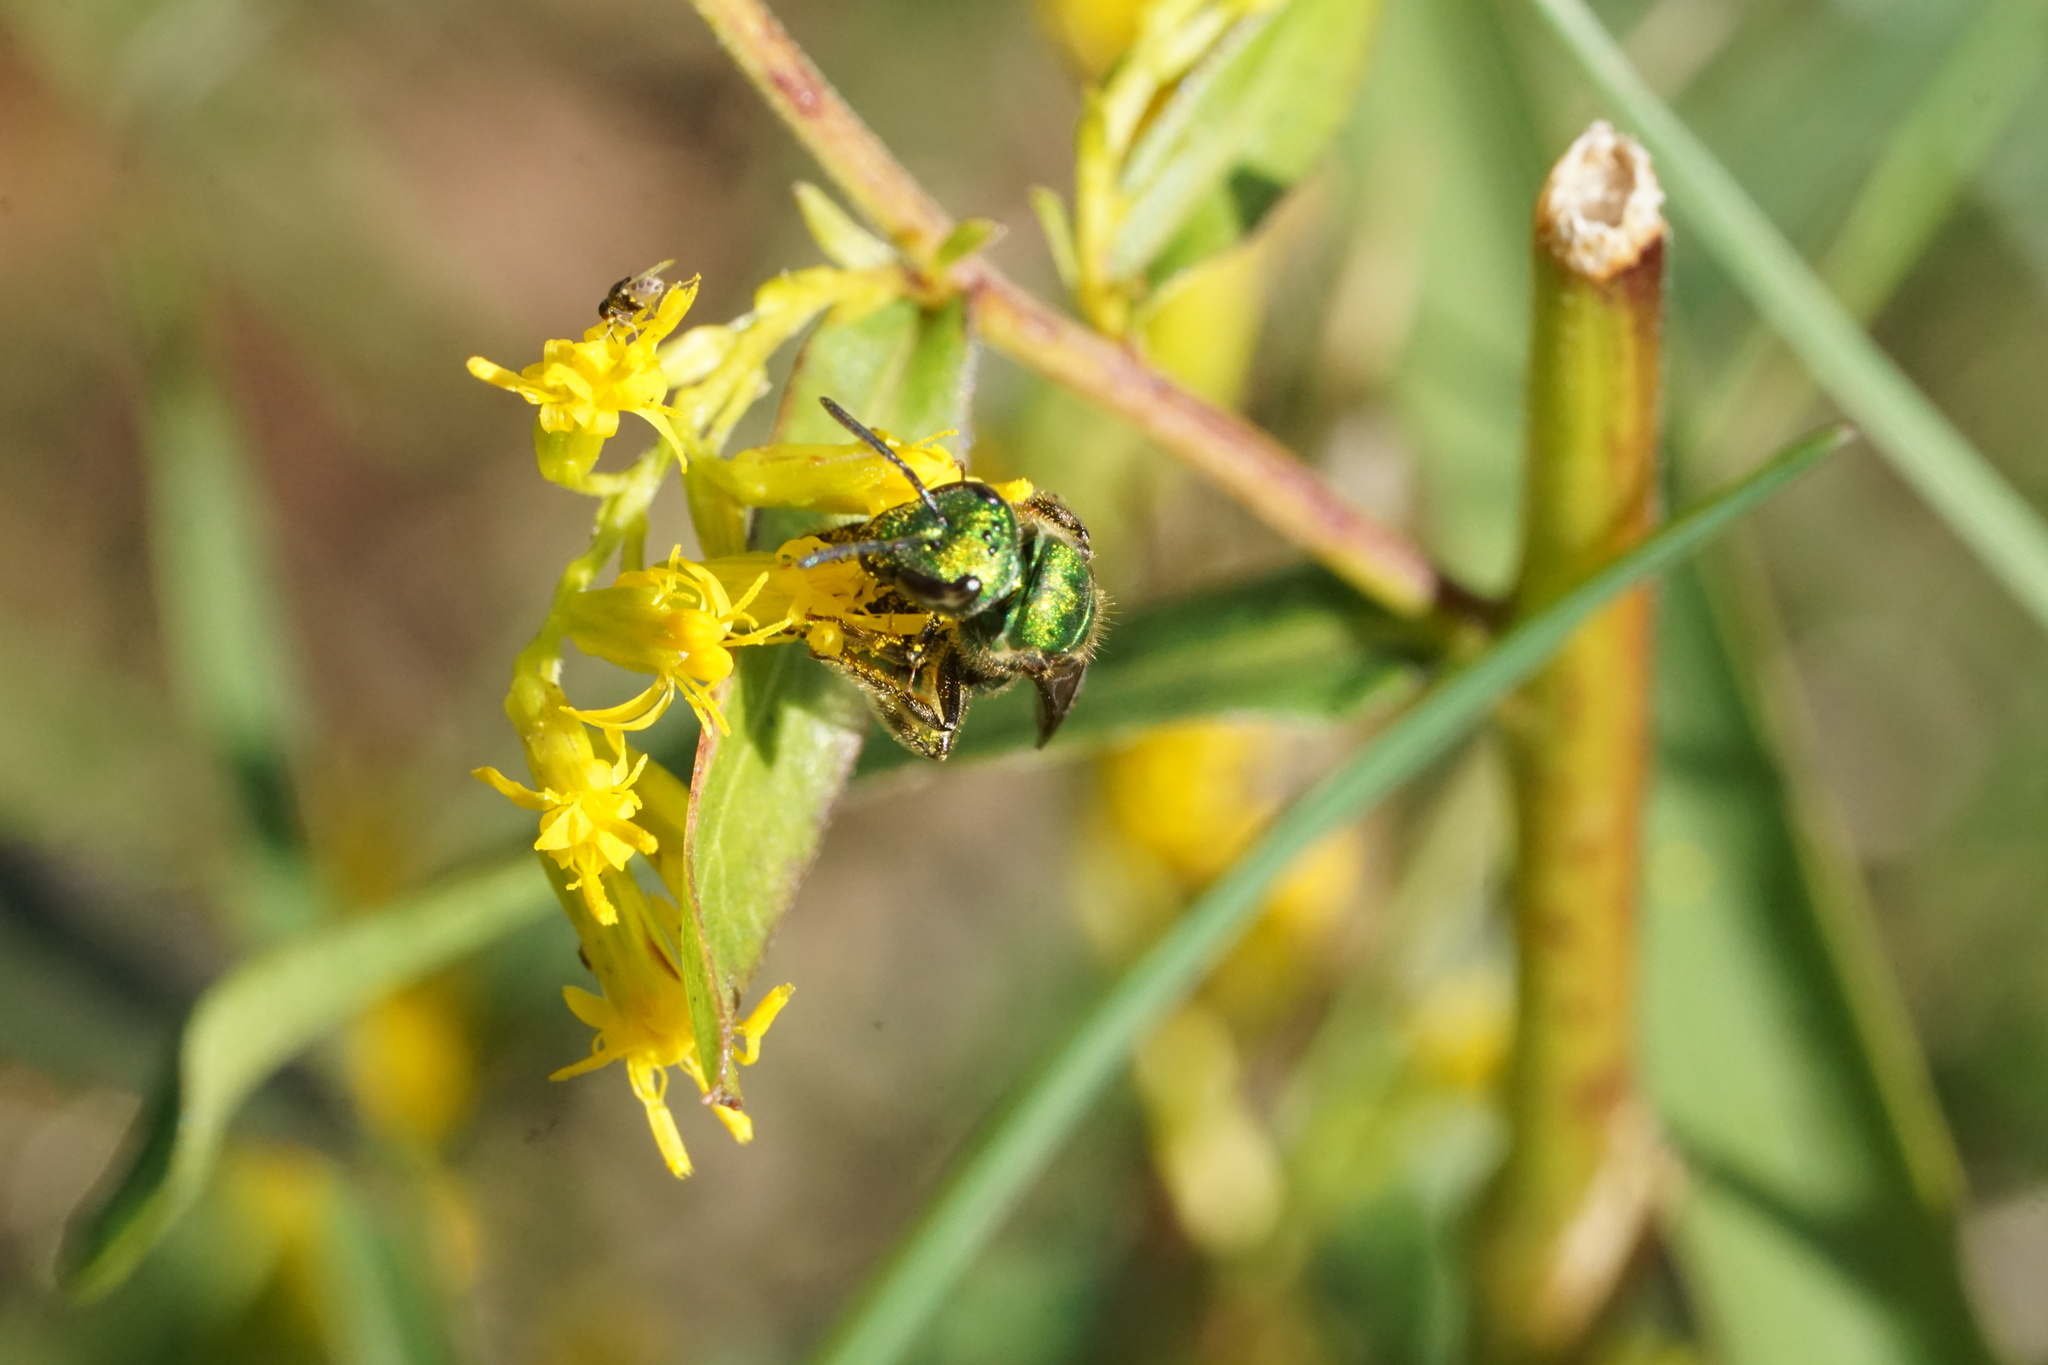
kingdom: Animalia
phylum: Arthropoda
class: Insecta
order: Hymenoptera
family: Halictidae
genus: Augochlora
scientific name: Augochlora pura
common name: Pure green sweat bee
